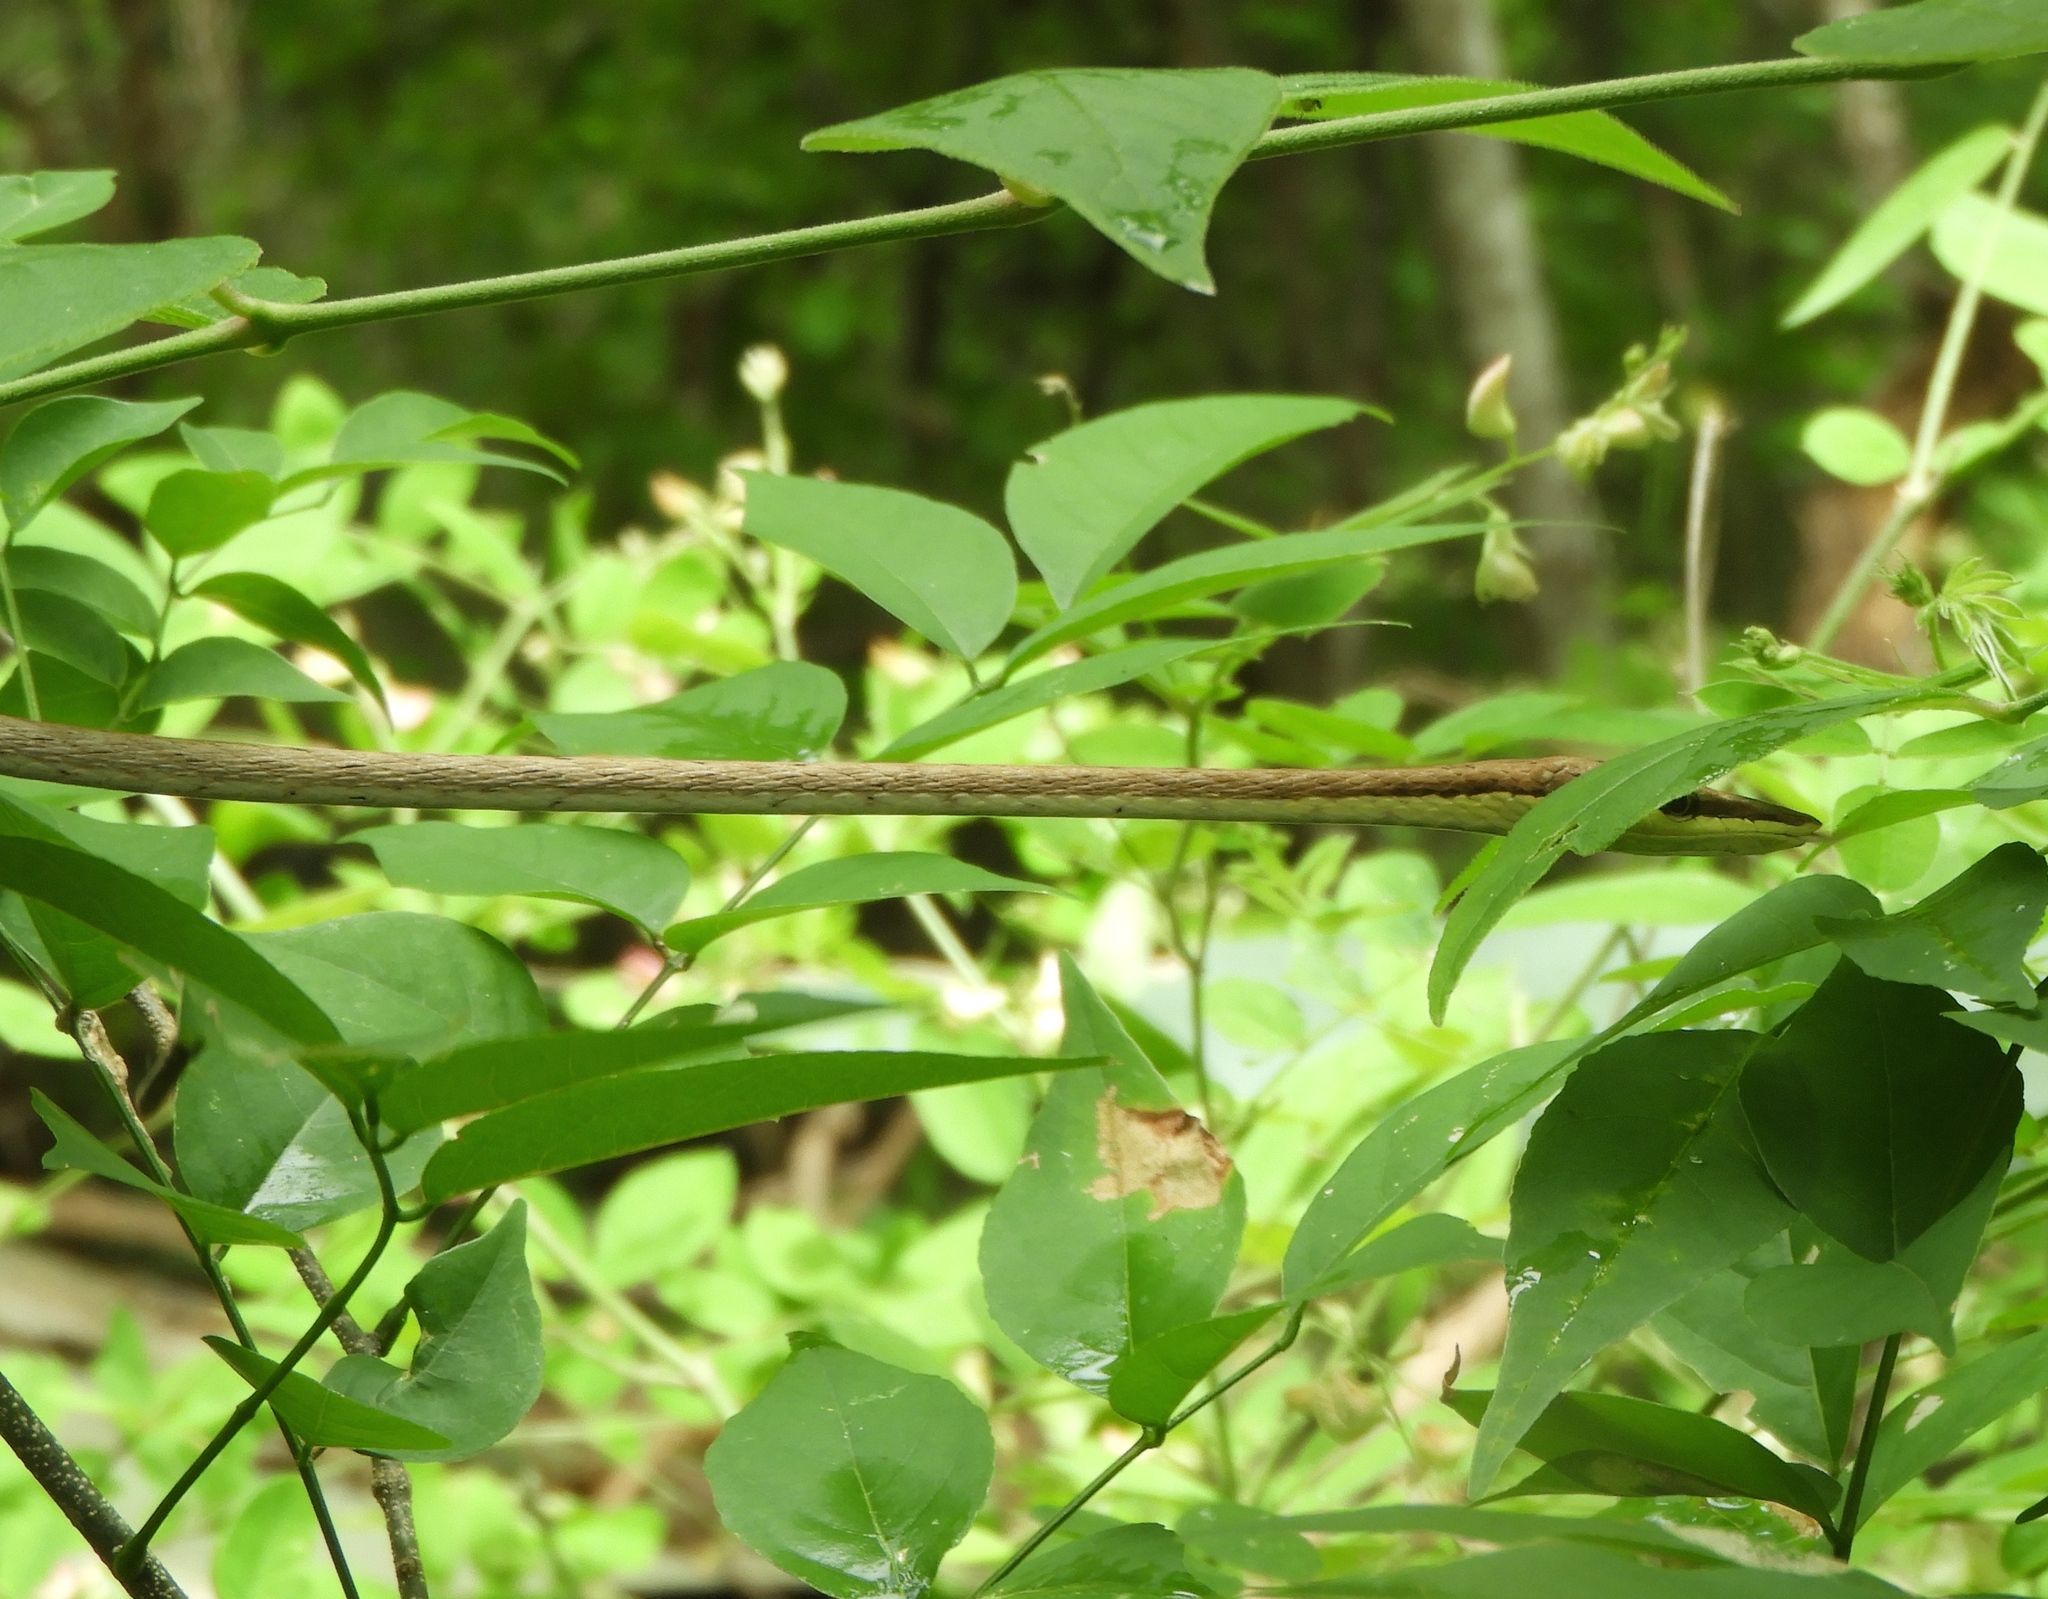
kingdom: Animalia
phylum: Chordata
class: Squamata
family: Colubridae
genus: Oxybelis
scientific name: Oxybelis microphthalmus
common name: Thrornscrub vine snake
